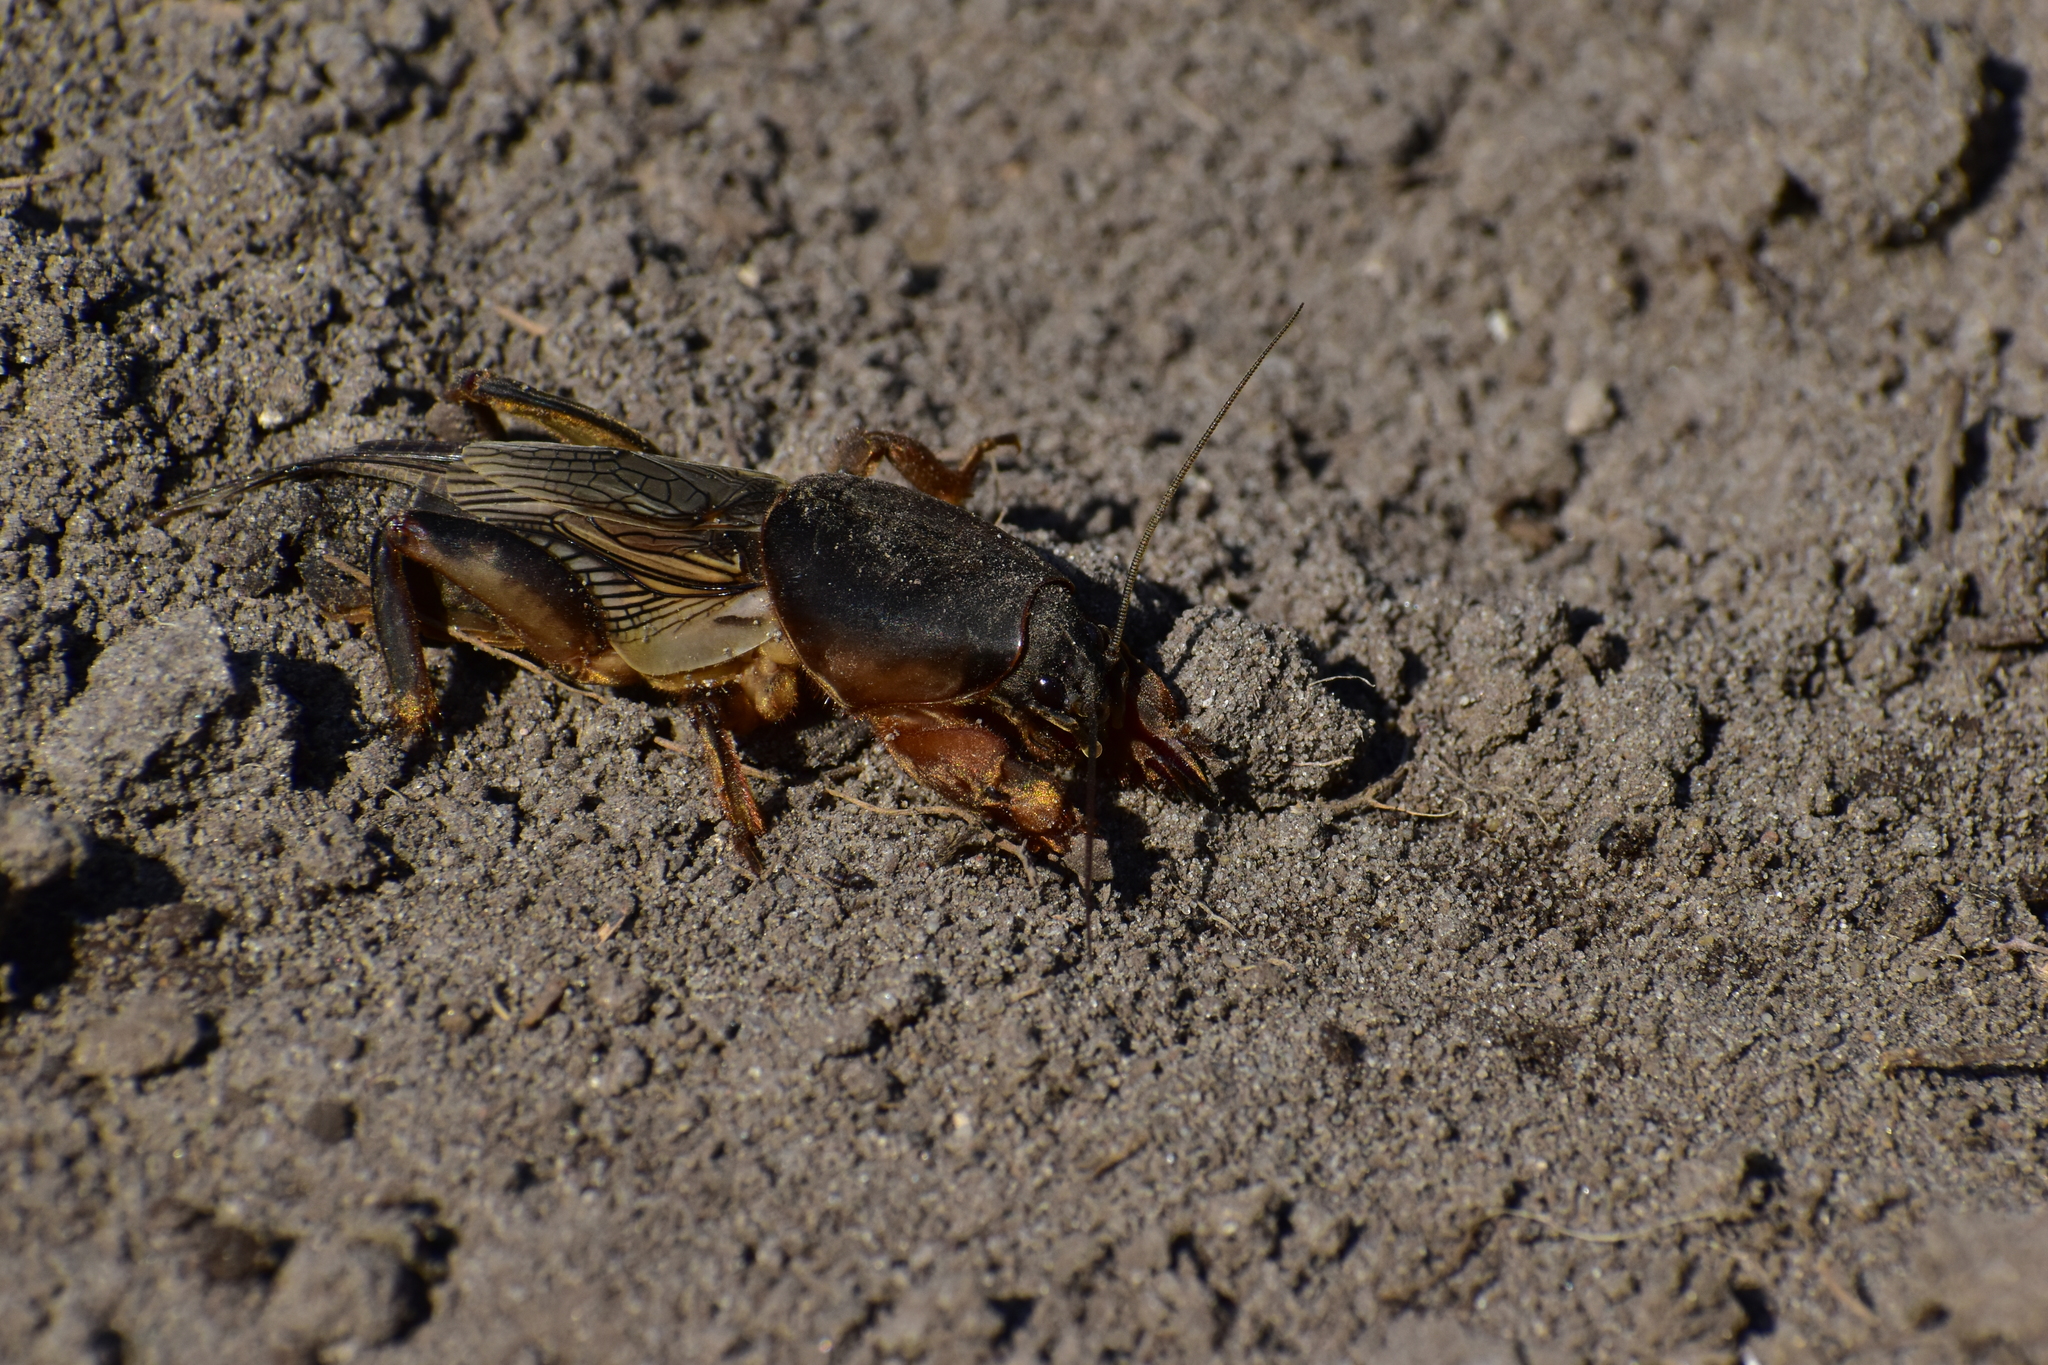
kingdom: Animalia
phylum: Arthropoda
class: Insecta
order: Orthoptera
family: Gryllotalpidae
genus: Gryllotalpa
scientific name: Gryllotalpa gryllotalpa
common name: European mole cricket
